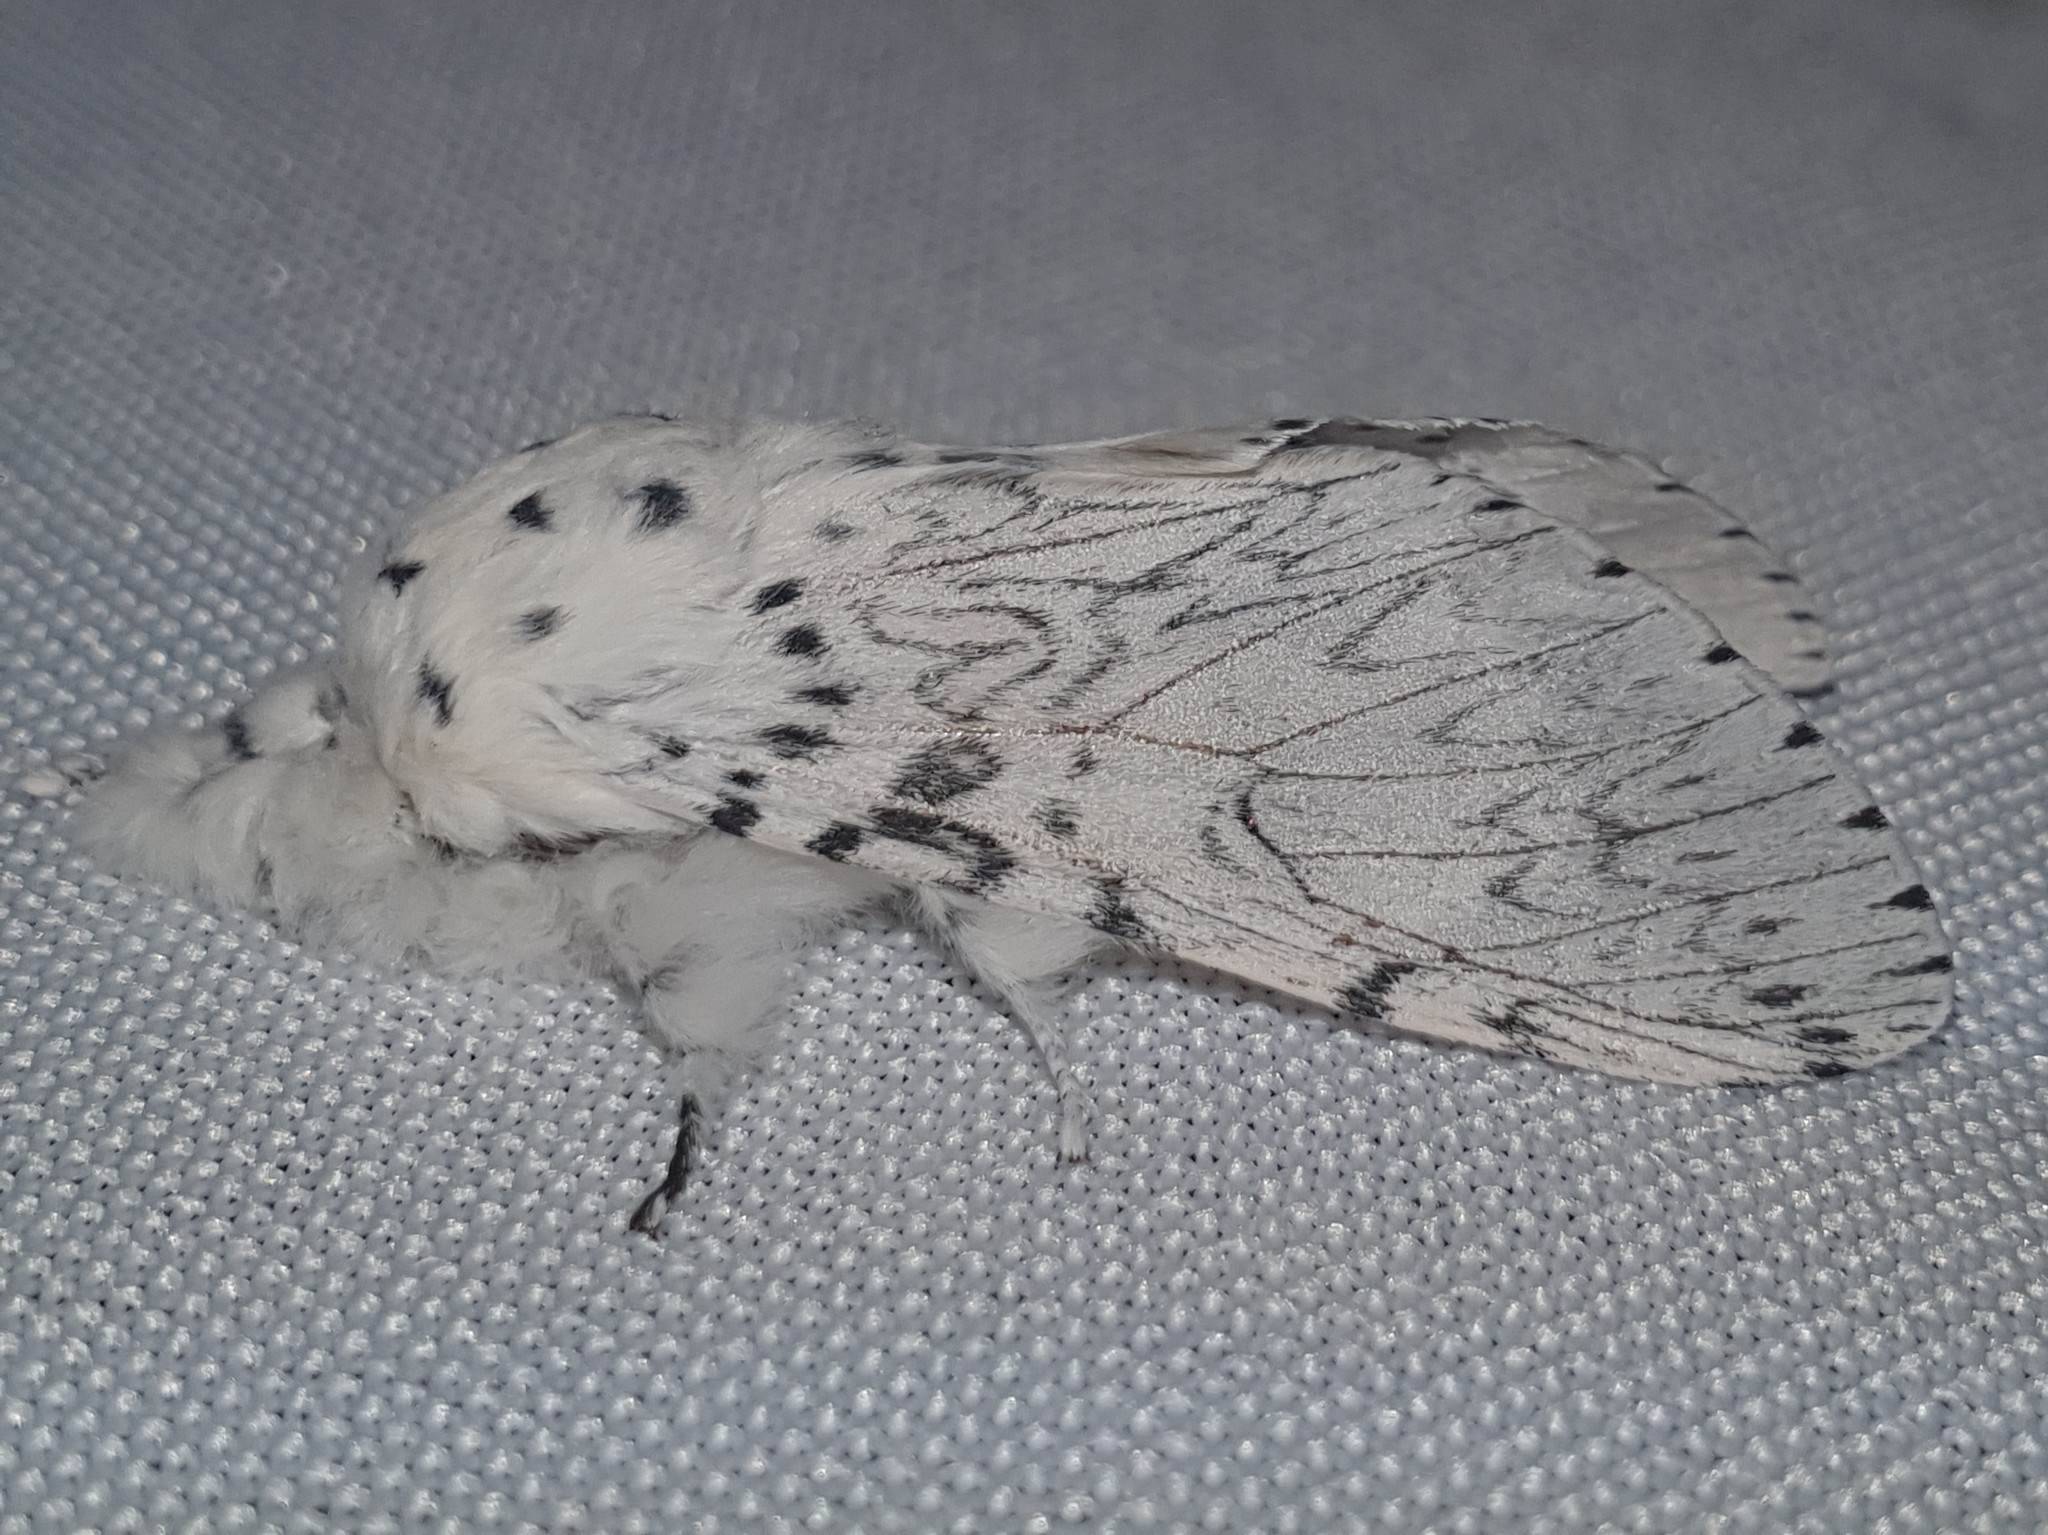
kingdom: Animalia
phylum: Arthropoda
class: Insecta
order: Lepidoptera
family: Notodontidae
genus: Cerura
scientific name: Cerura erminea
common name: Lesser puss moth
